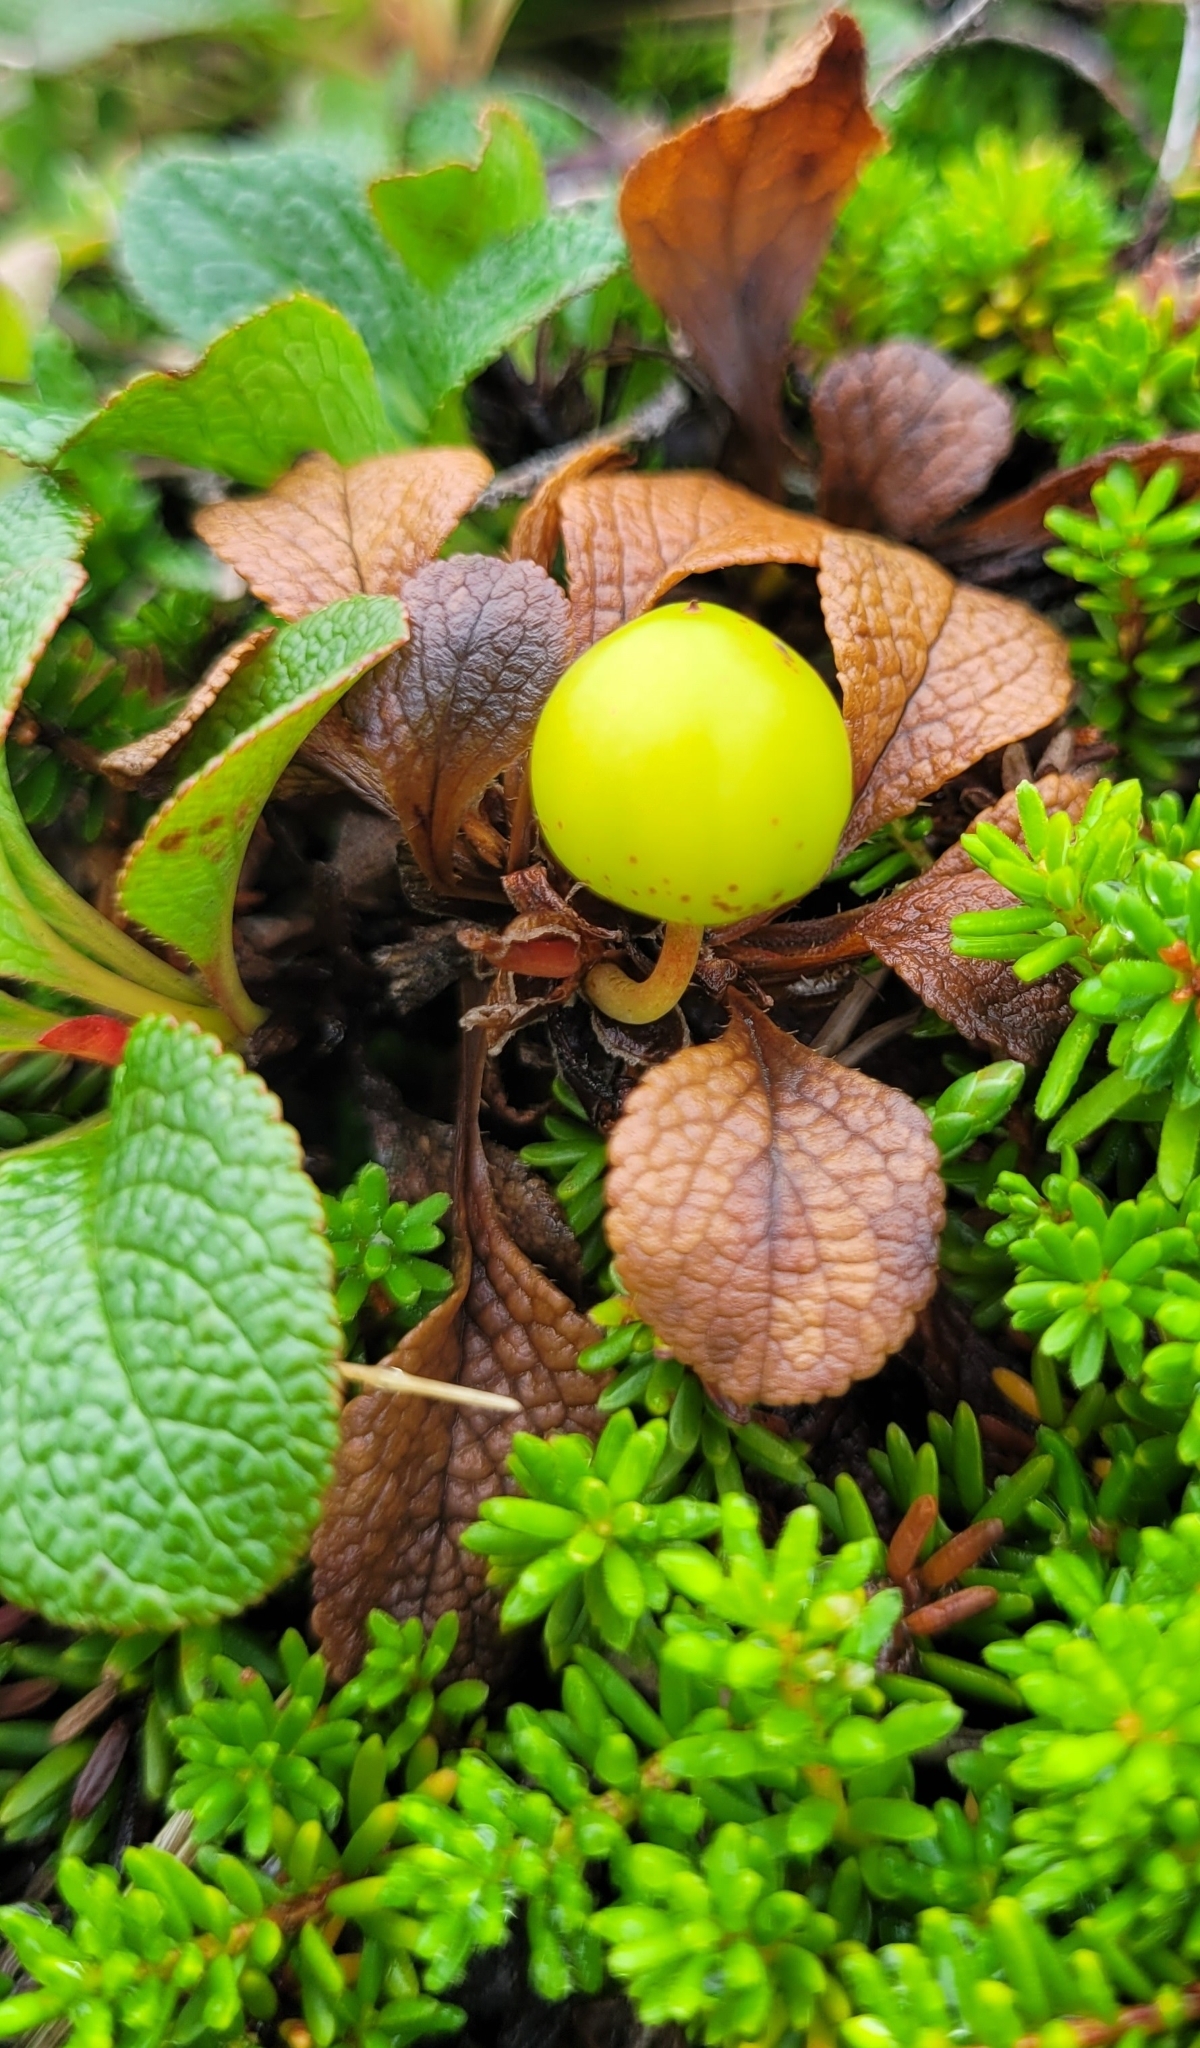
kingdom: Plantae
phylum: Tracheophyta
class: Magnoliopsida
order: Ericales
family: Ericaceae
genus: Arctostaphylos
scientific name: Arctostaphylos alpinus
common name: Alpine bearberry
